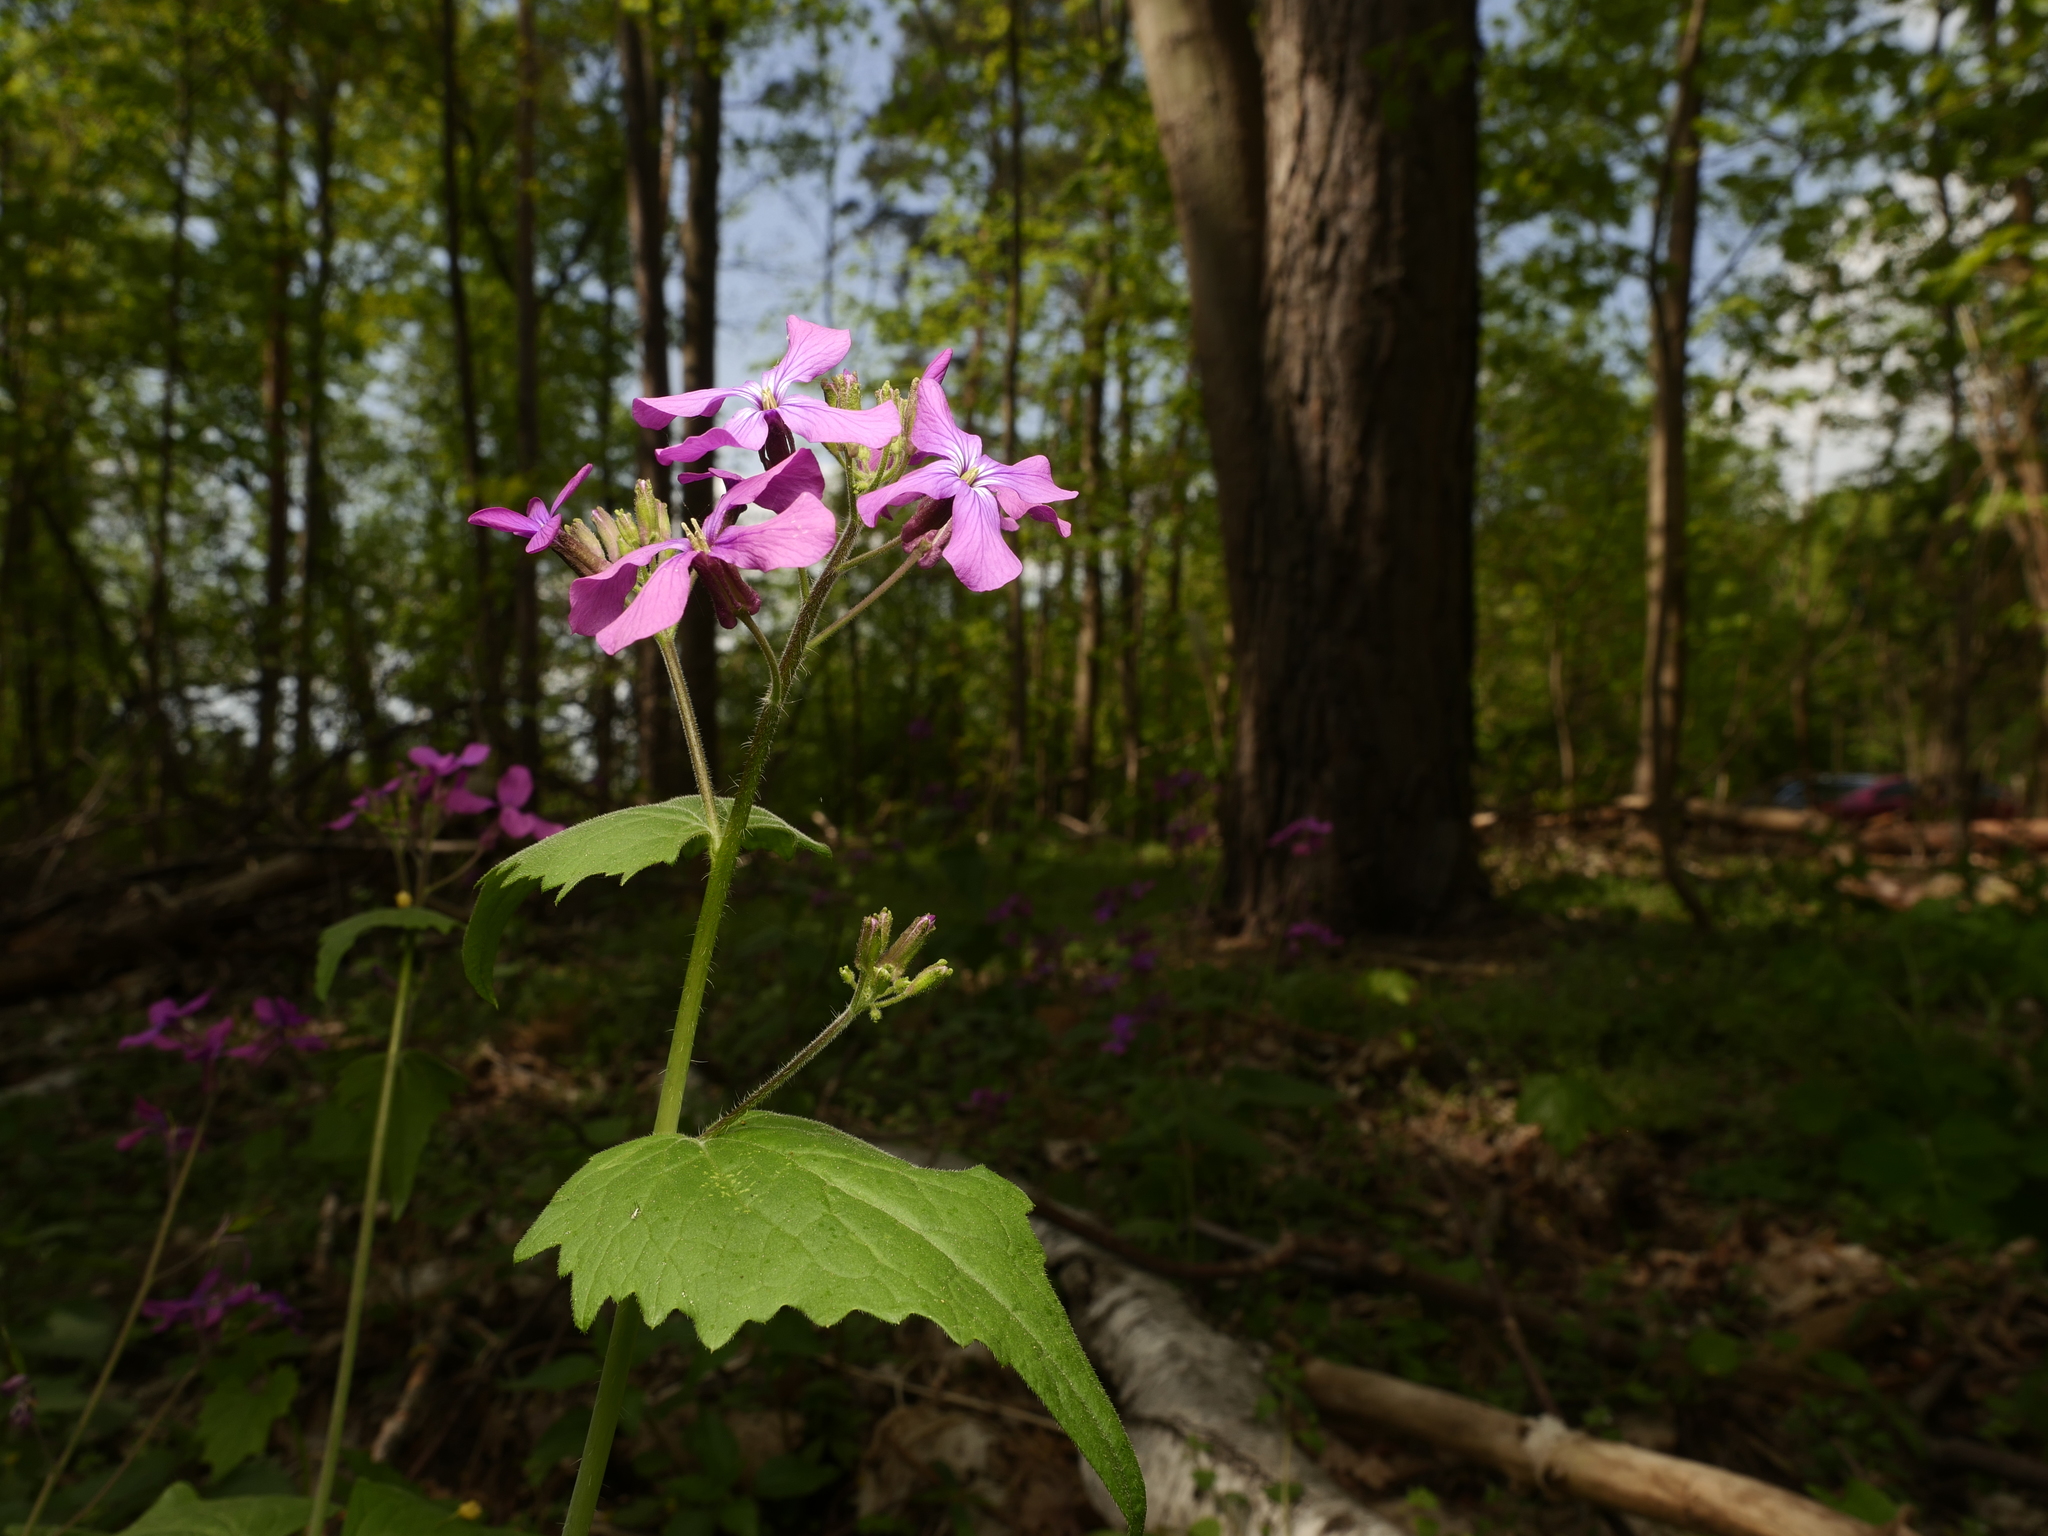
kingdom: Plantae
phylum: Tracheophyta
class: Magnoliopsida
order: Brassicales
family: Brassicaceae
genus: Lunaria
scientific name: Lunaria annua
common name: Honesty
